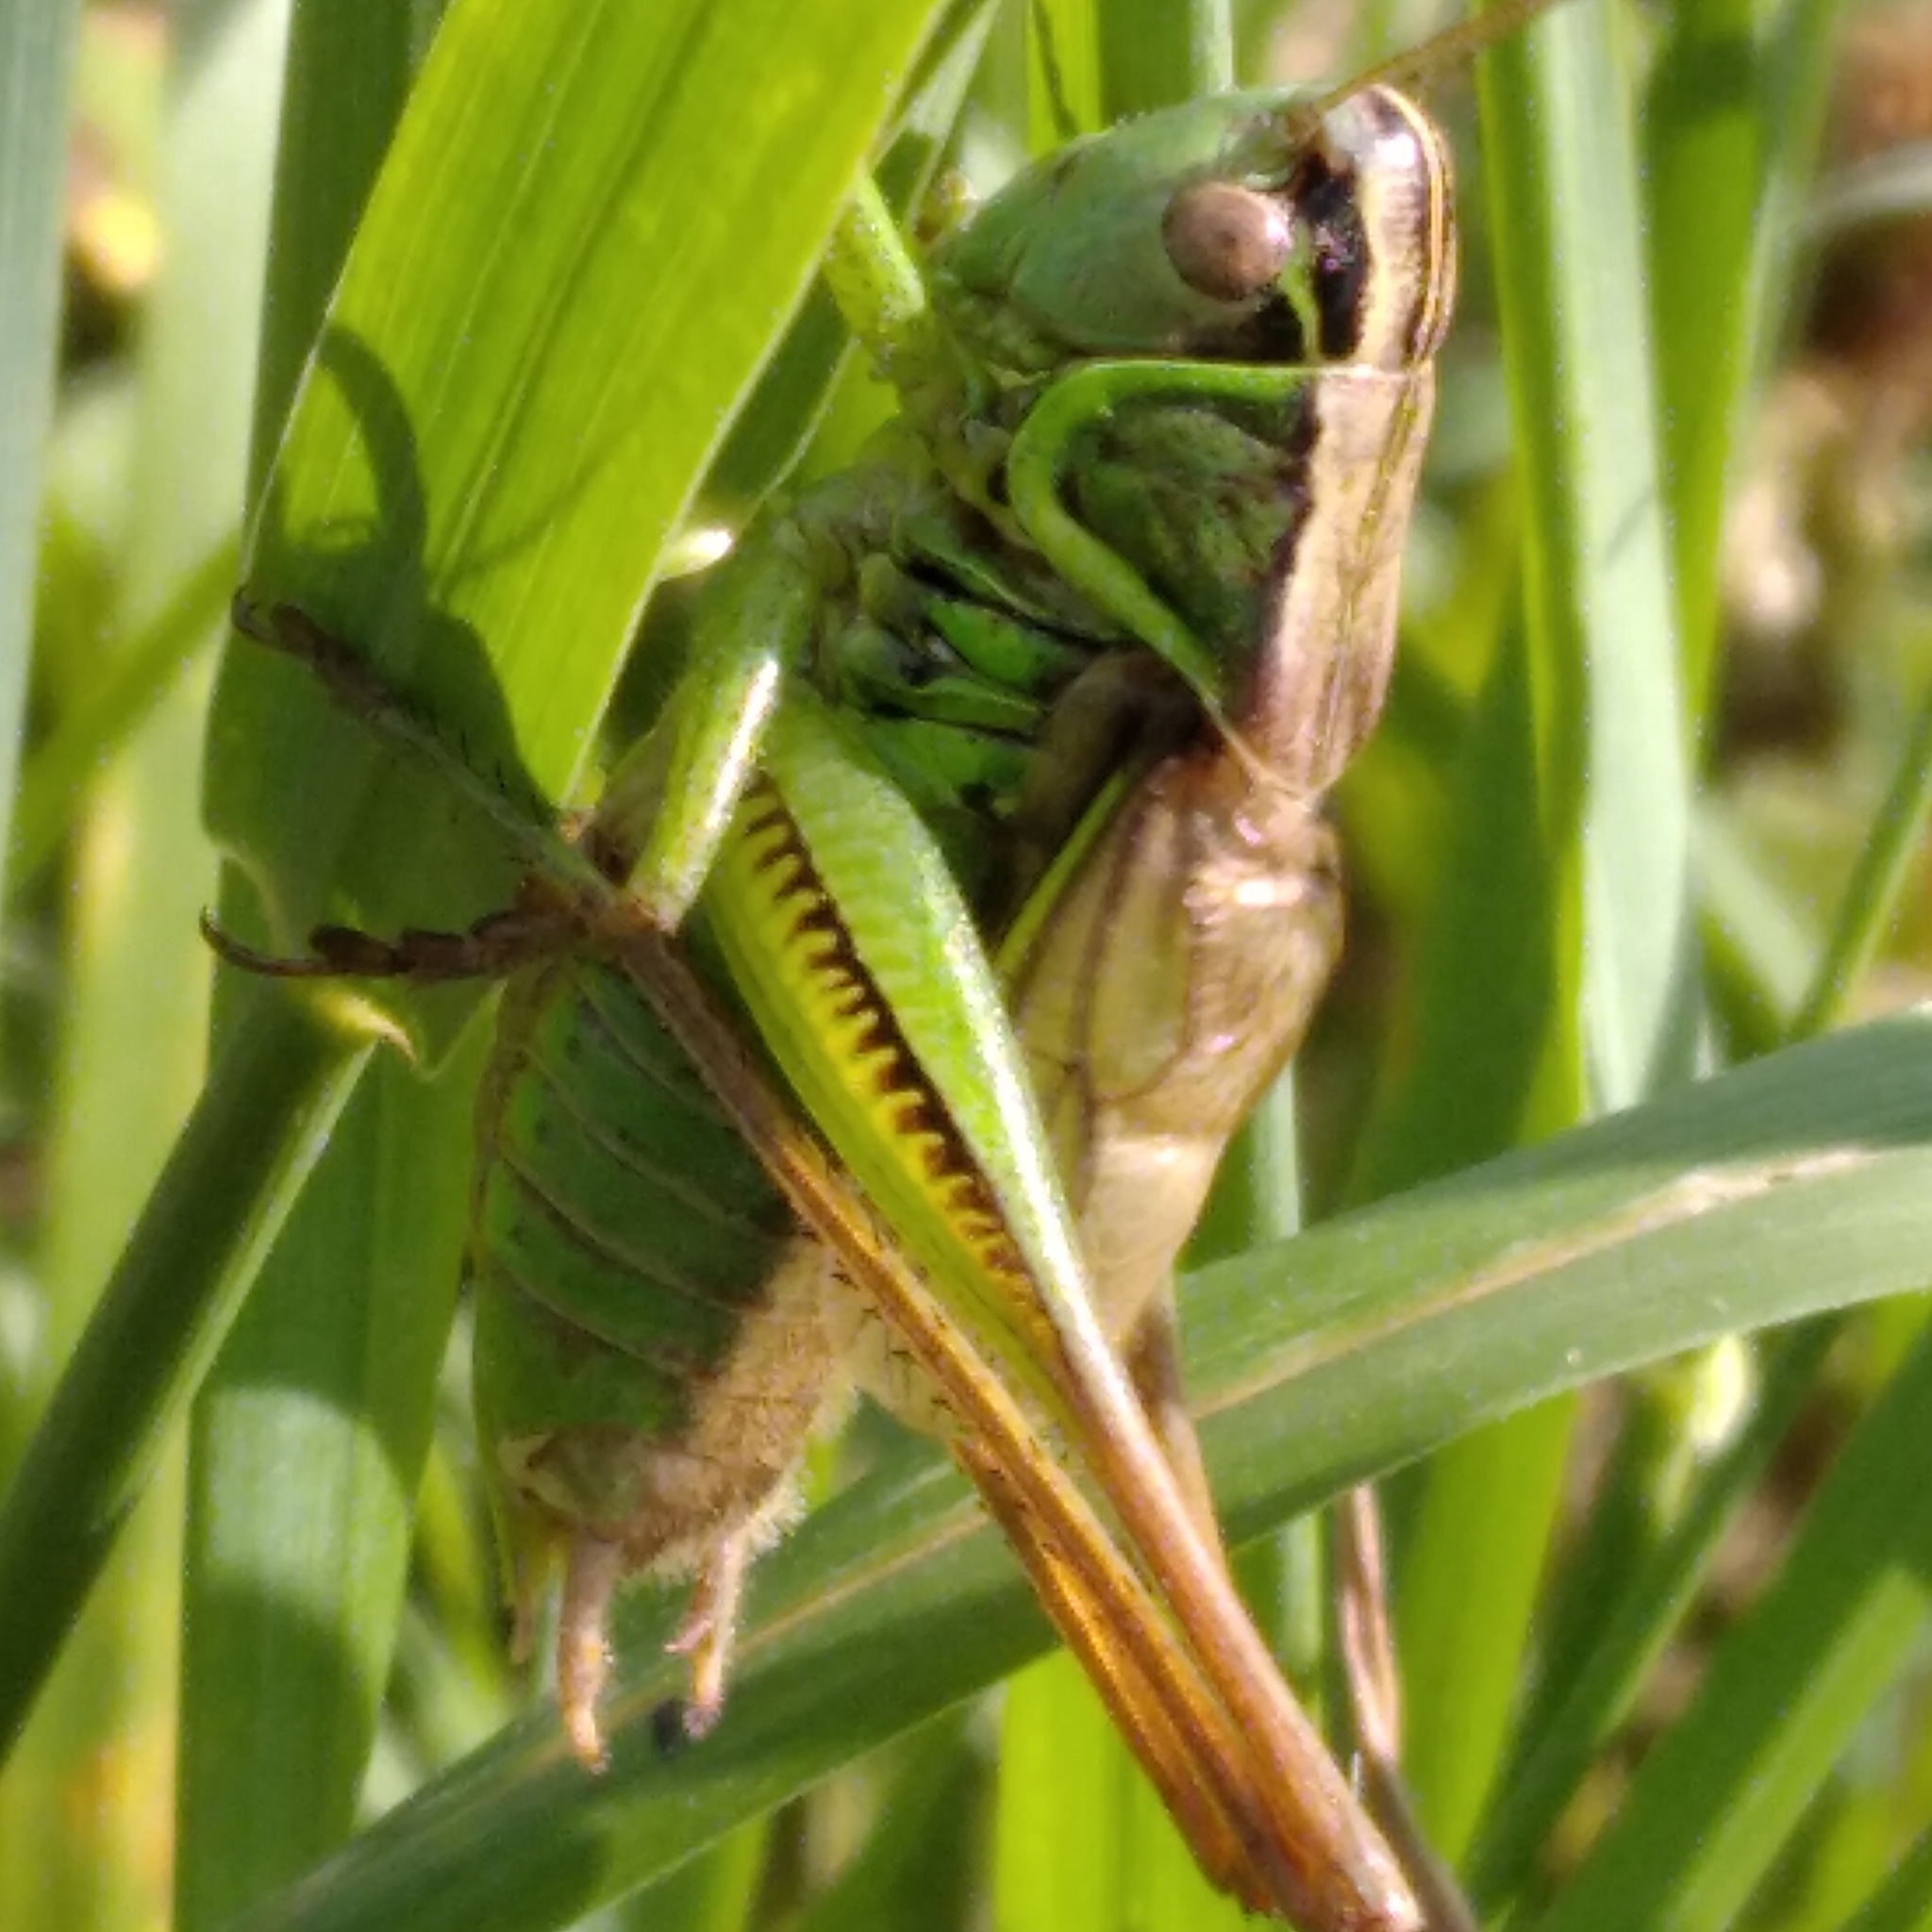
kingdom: Animalia
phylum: Arthropoda
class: Insecta
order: Orthoptera
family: Tettigoniidae
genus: Roeseliana
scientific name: Roeseliana roeselii
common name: Roesel's bush cricket
